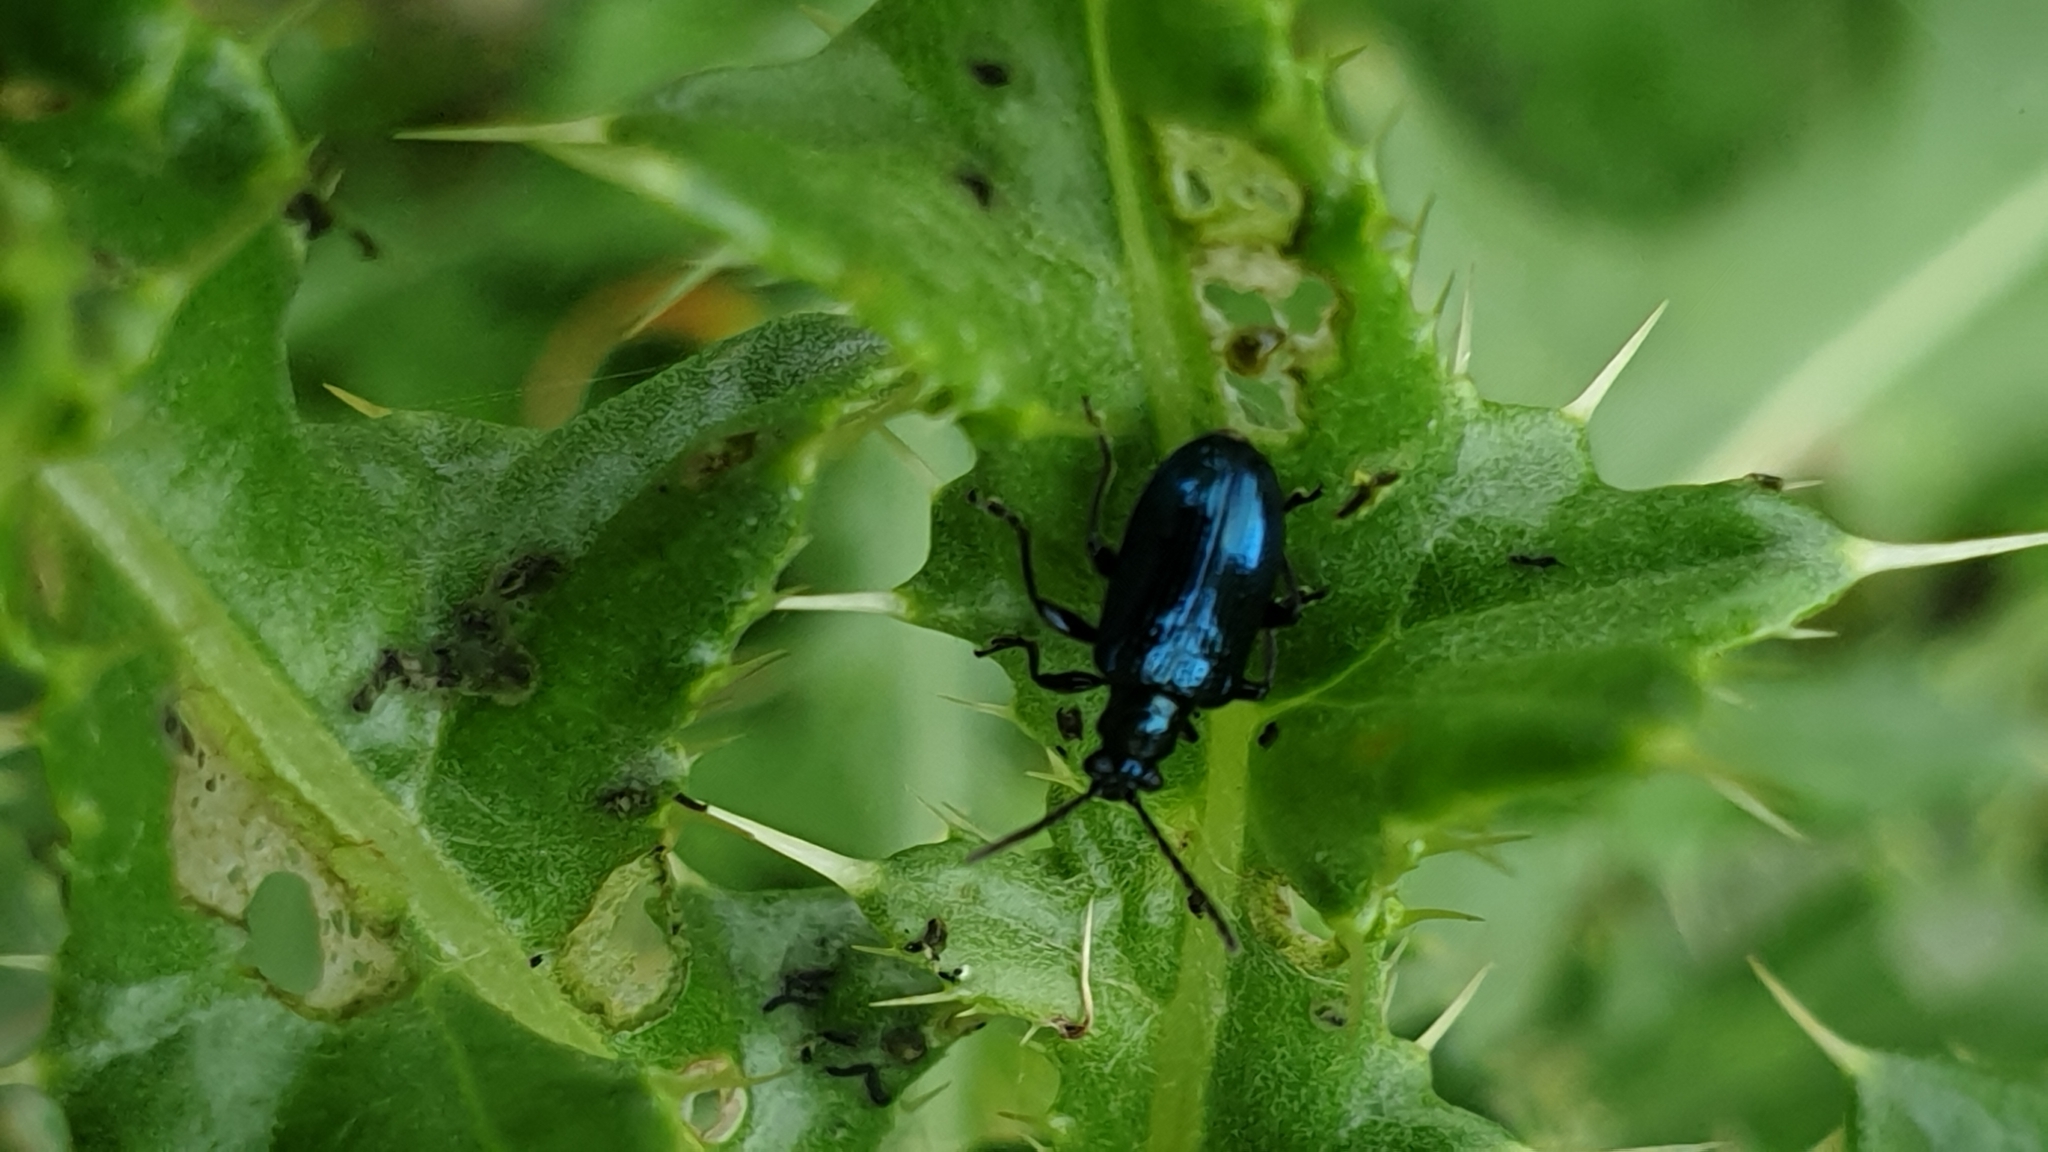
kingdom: Animalia
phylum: Arthropoda
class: Insecta
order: Coleoptera
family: Chrysomelidae
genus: Lema
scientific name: Lema cyanella
